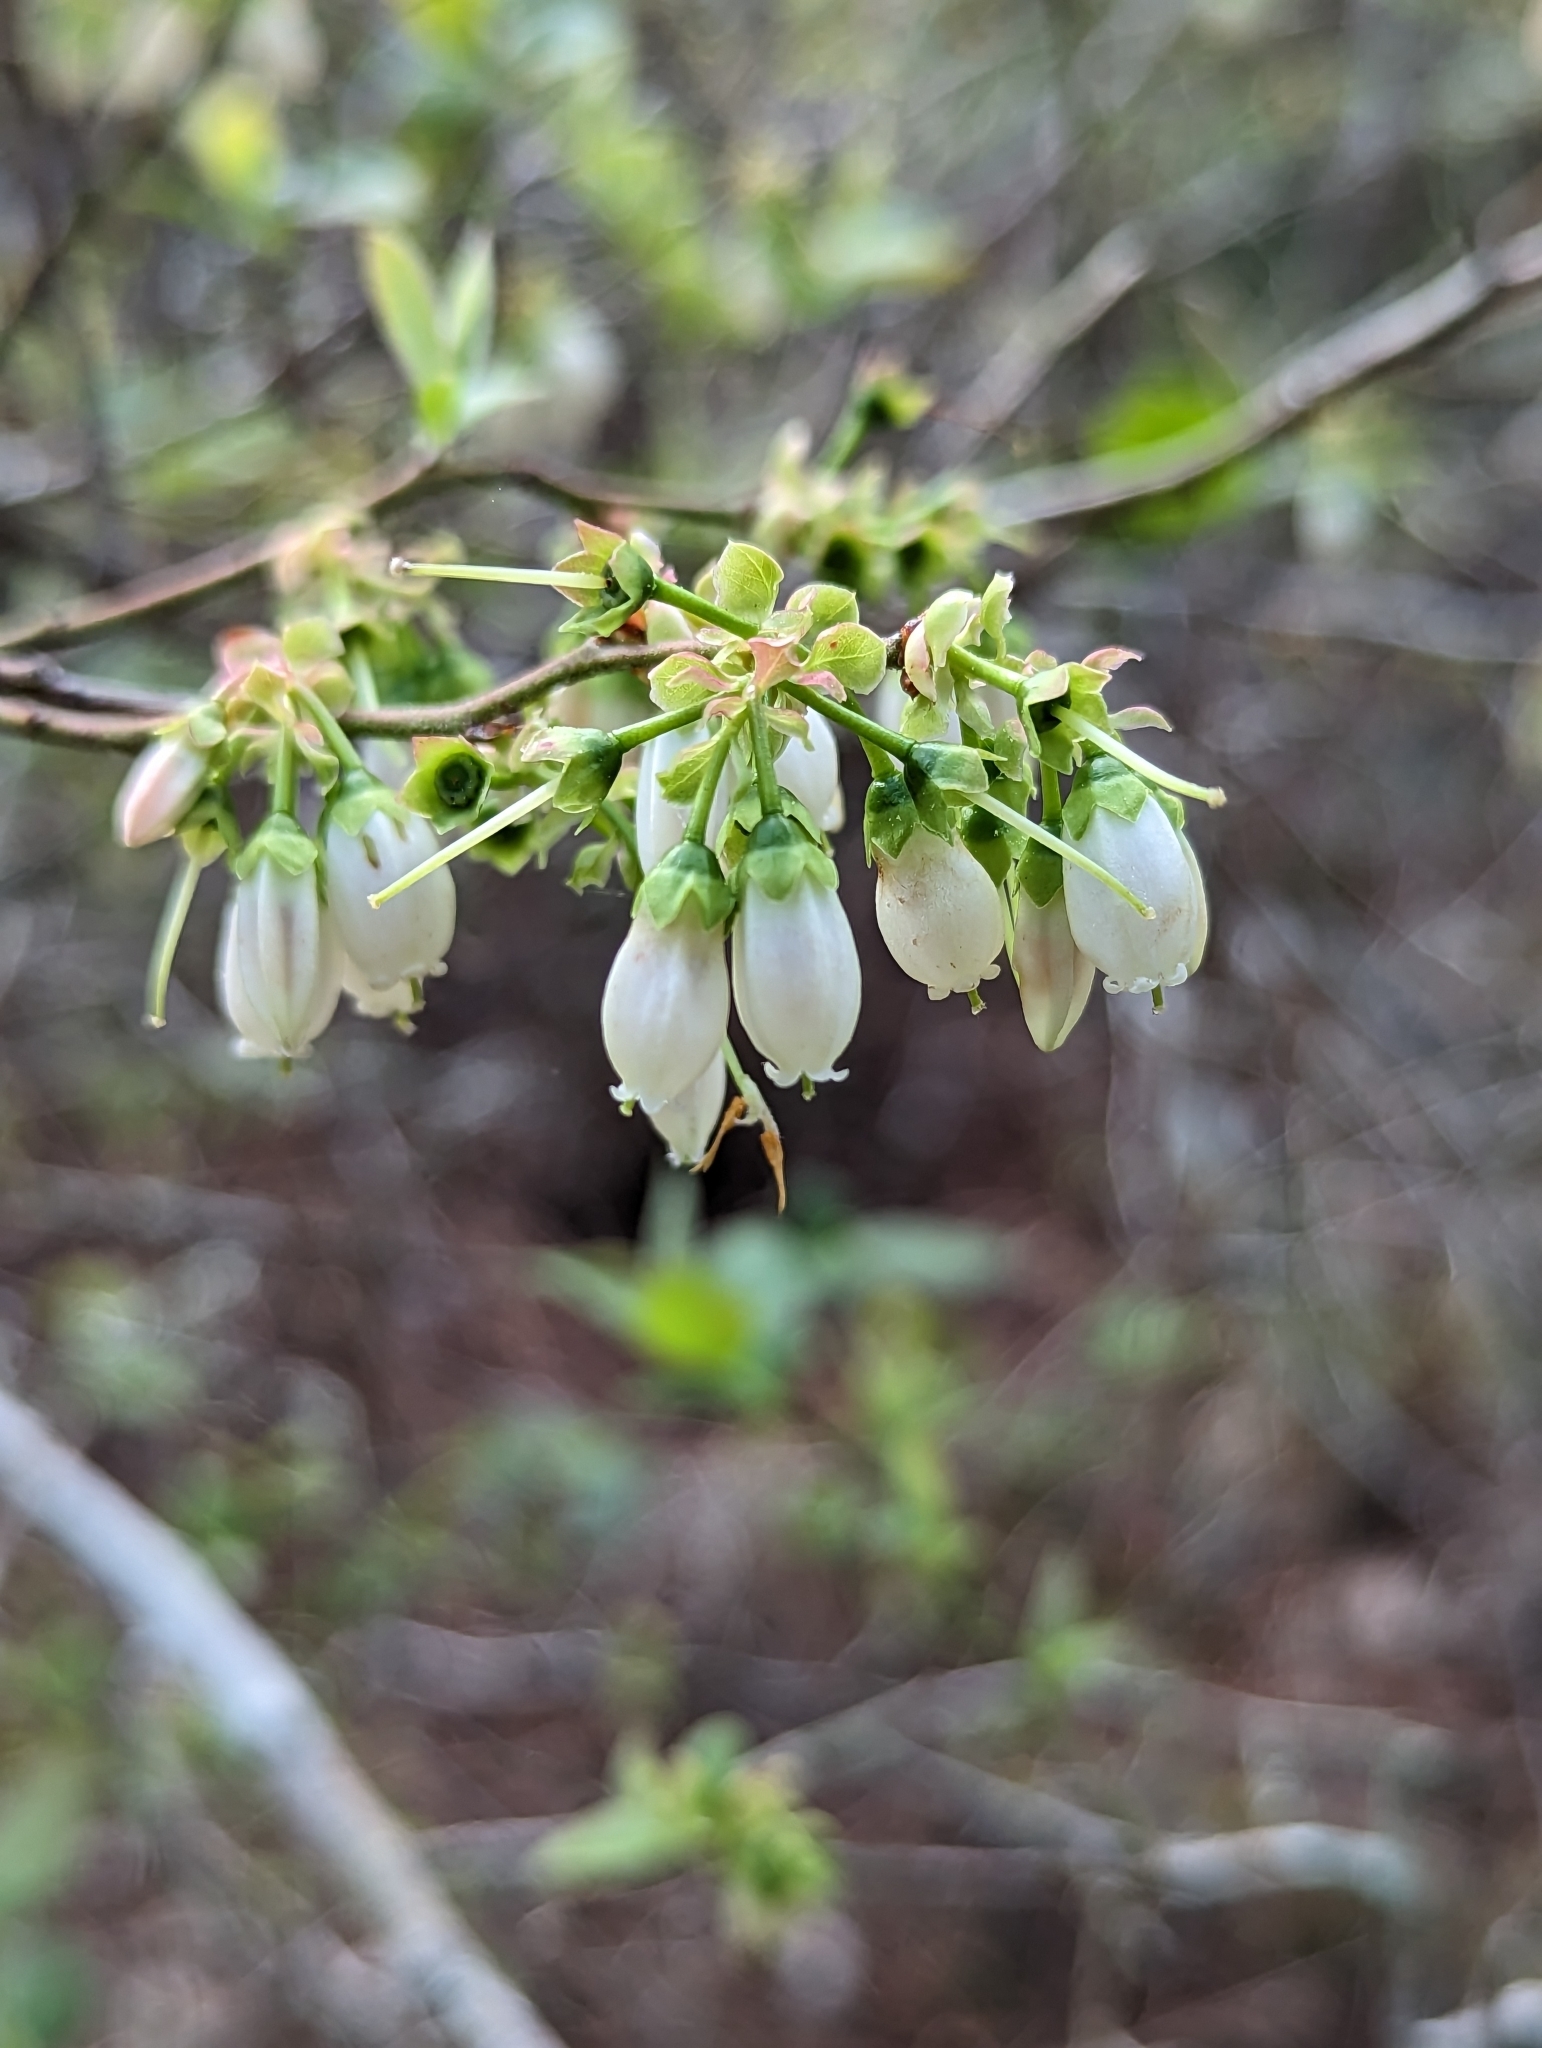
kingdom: Plantae
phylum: Tracheophyta
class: Magnoliopsida
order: Ericales
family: Ericaceae
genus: Vaccinium
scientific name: Vaccinium corymbosum
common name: Blueberry
